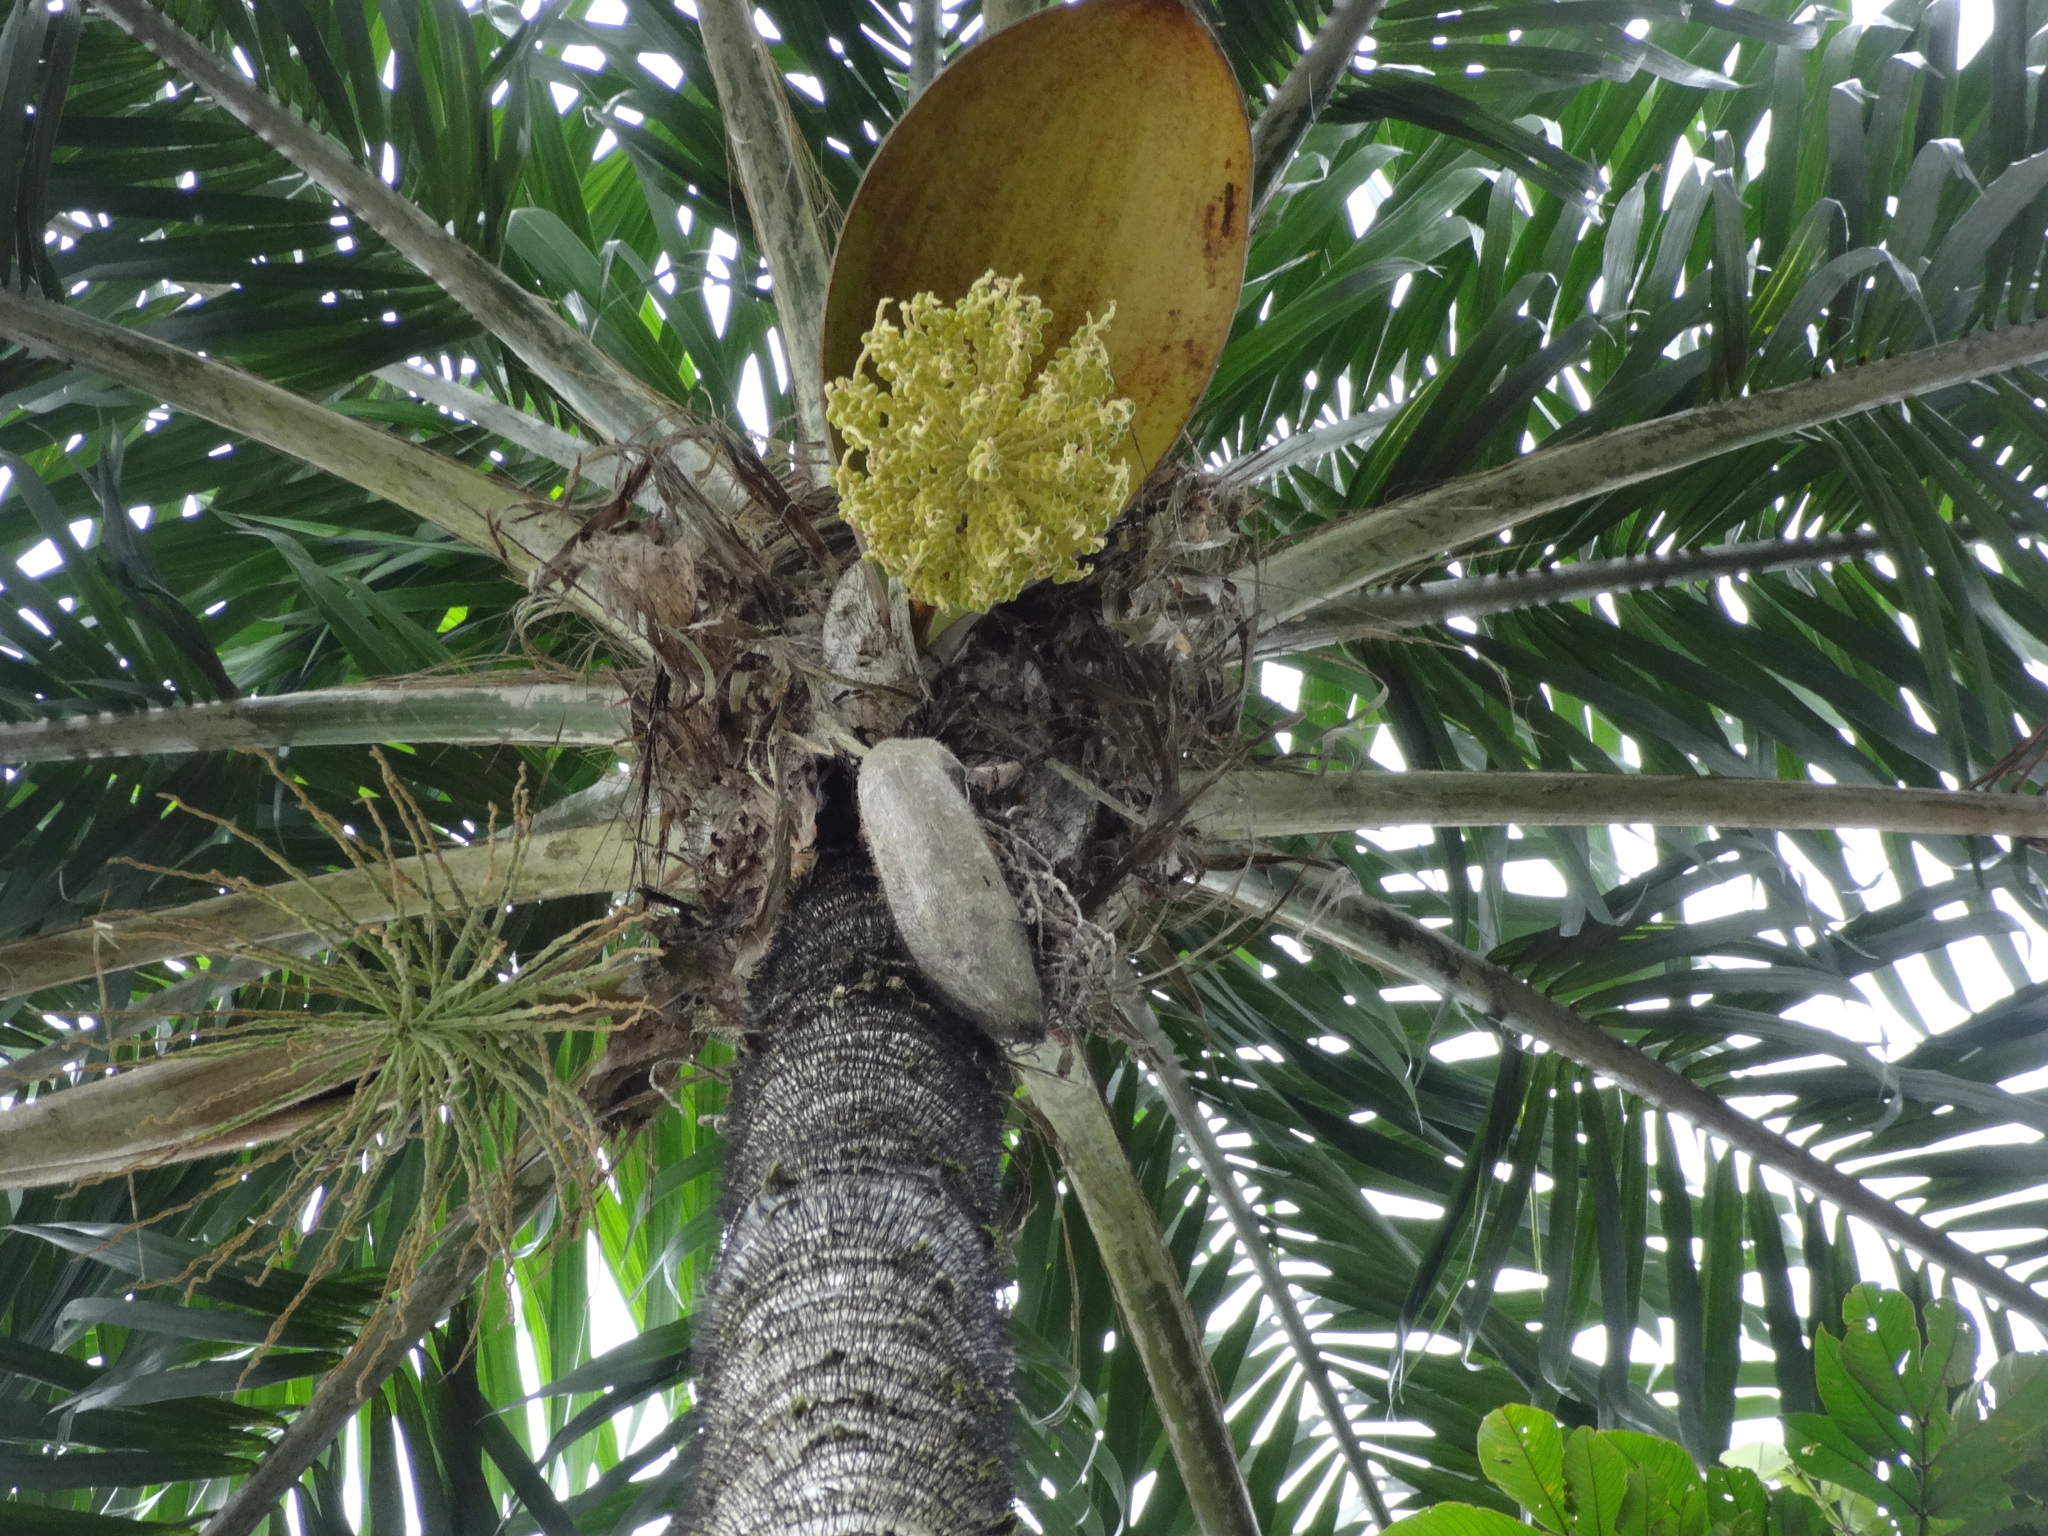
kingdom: Plantae
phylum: Tracheophyta
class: Liliopsida
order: Arecales
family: Arecaceae
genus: Bactris
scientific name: Bactris gasipaes
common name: Peach palm
